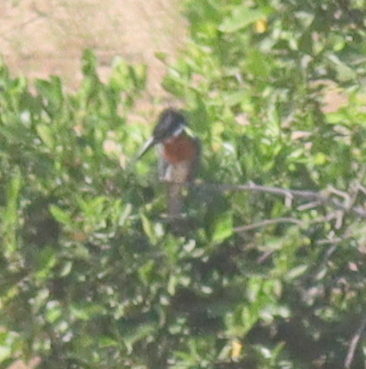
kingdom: Animalia
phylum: Chordata
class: Aves
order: Coraciiformes
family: Alcedinidae
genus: Megaceryle
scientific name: Megaceryle maxima
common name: Giant kingfisher
